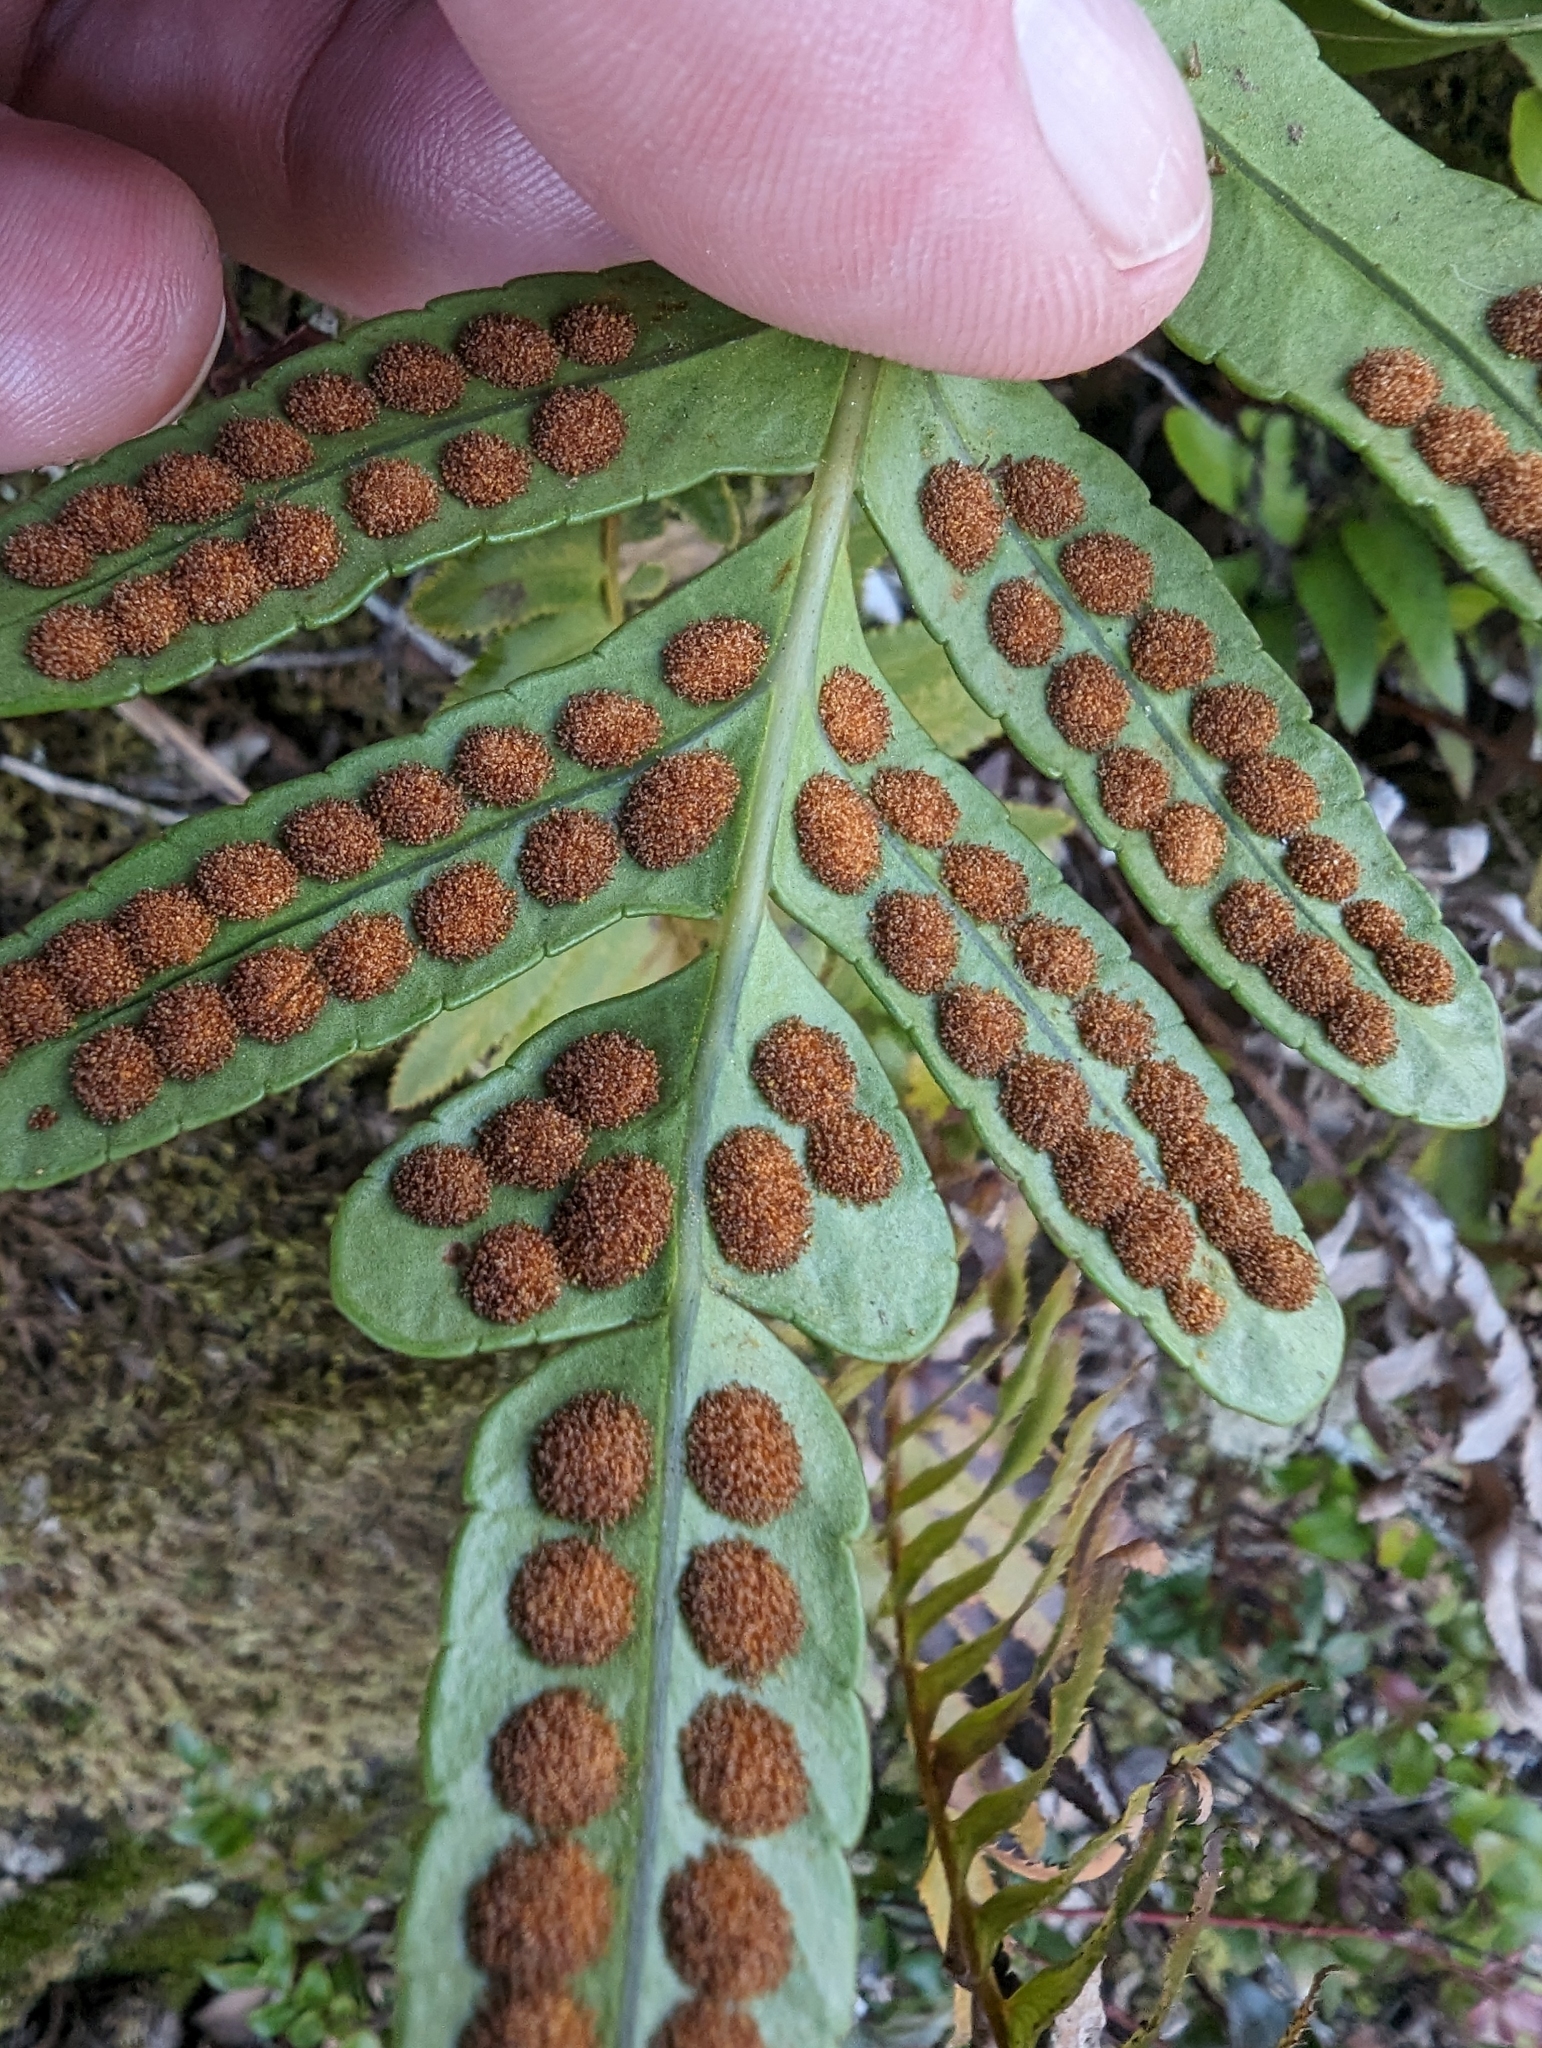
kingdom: Plantae
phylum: Tracheophyta
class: Polypodiopsida
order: Polypodiales
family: Polypodiaceae
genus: Polypodium
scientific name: Polypodium scouleri
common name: Scouler's polypody
